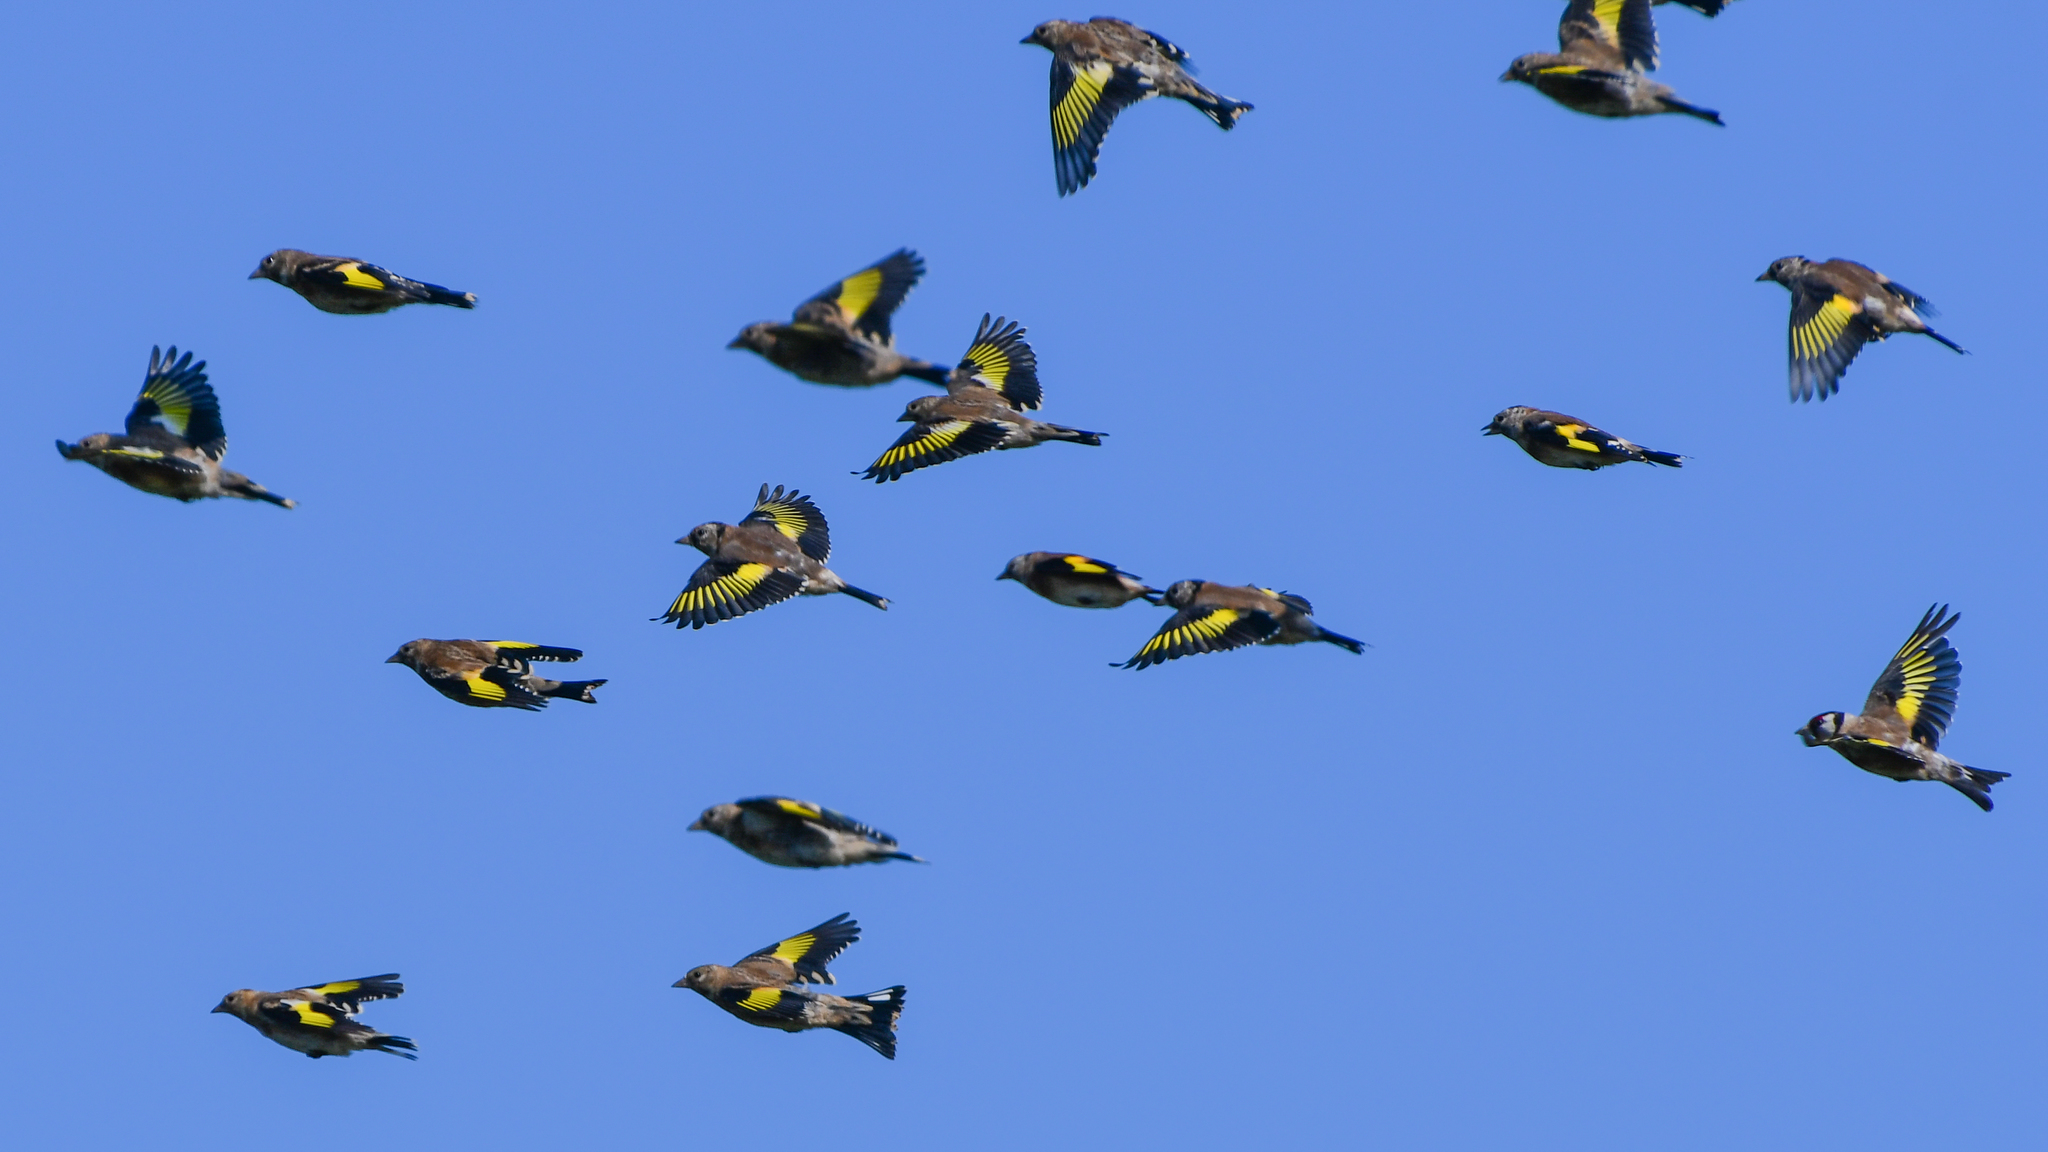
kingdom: Animalia
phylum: Chordata
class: Aves
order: Passeriformes
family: Fringillidae
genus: Carduelis
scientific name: Carduelis carduelis
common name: European goldfinch
